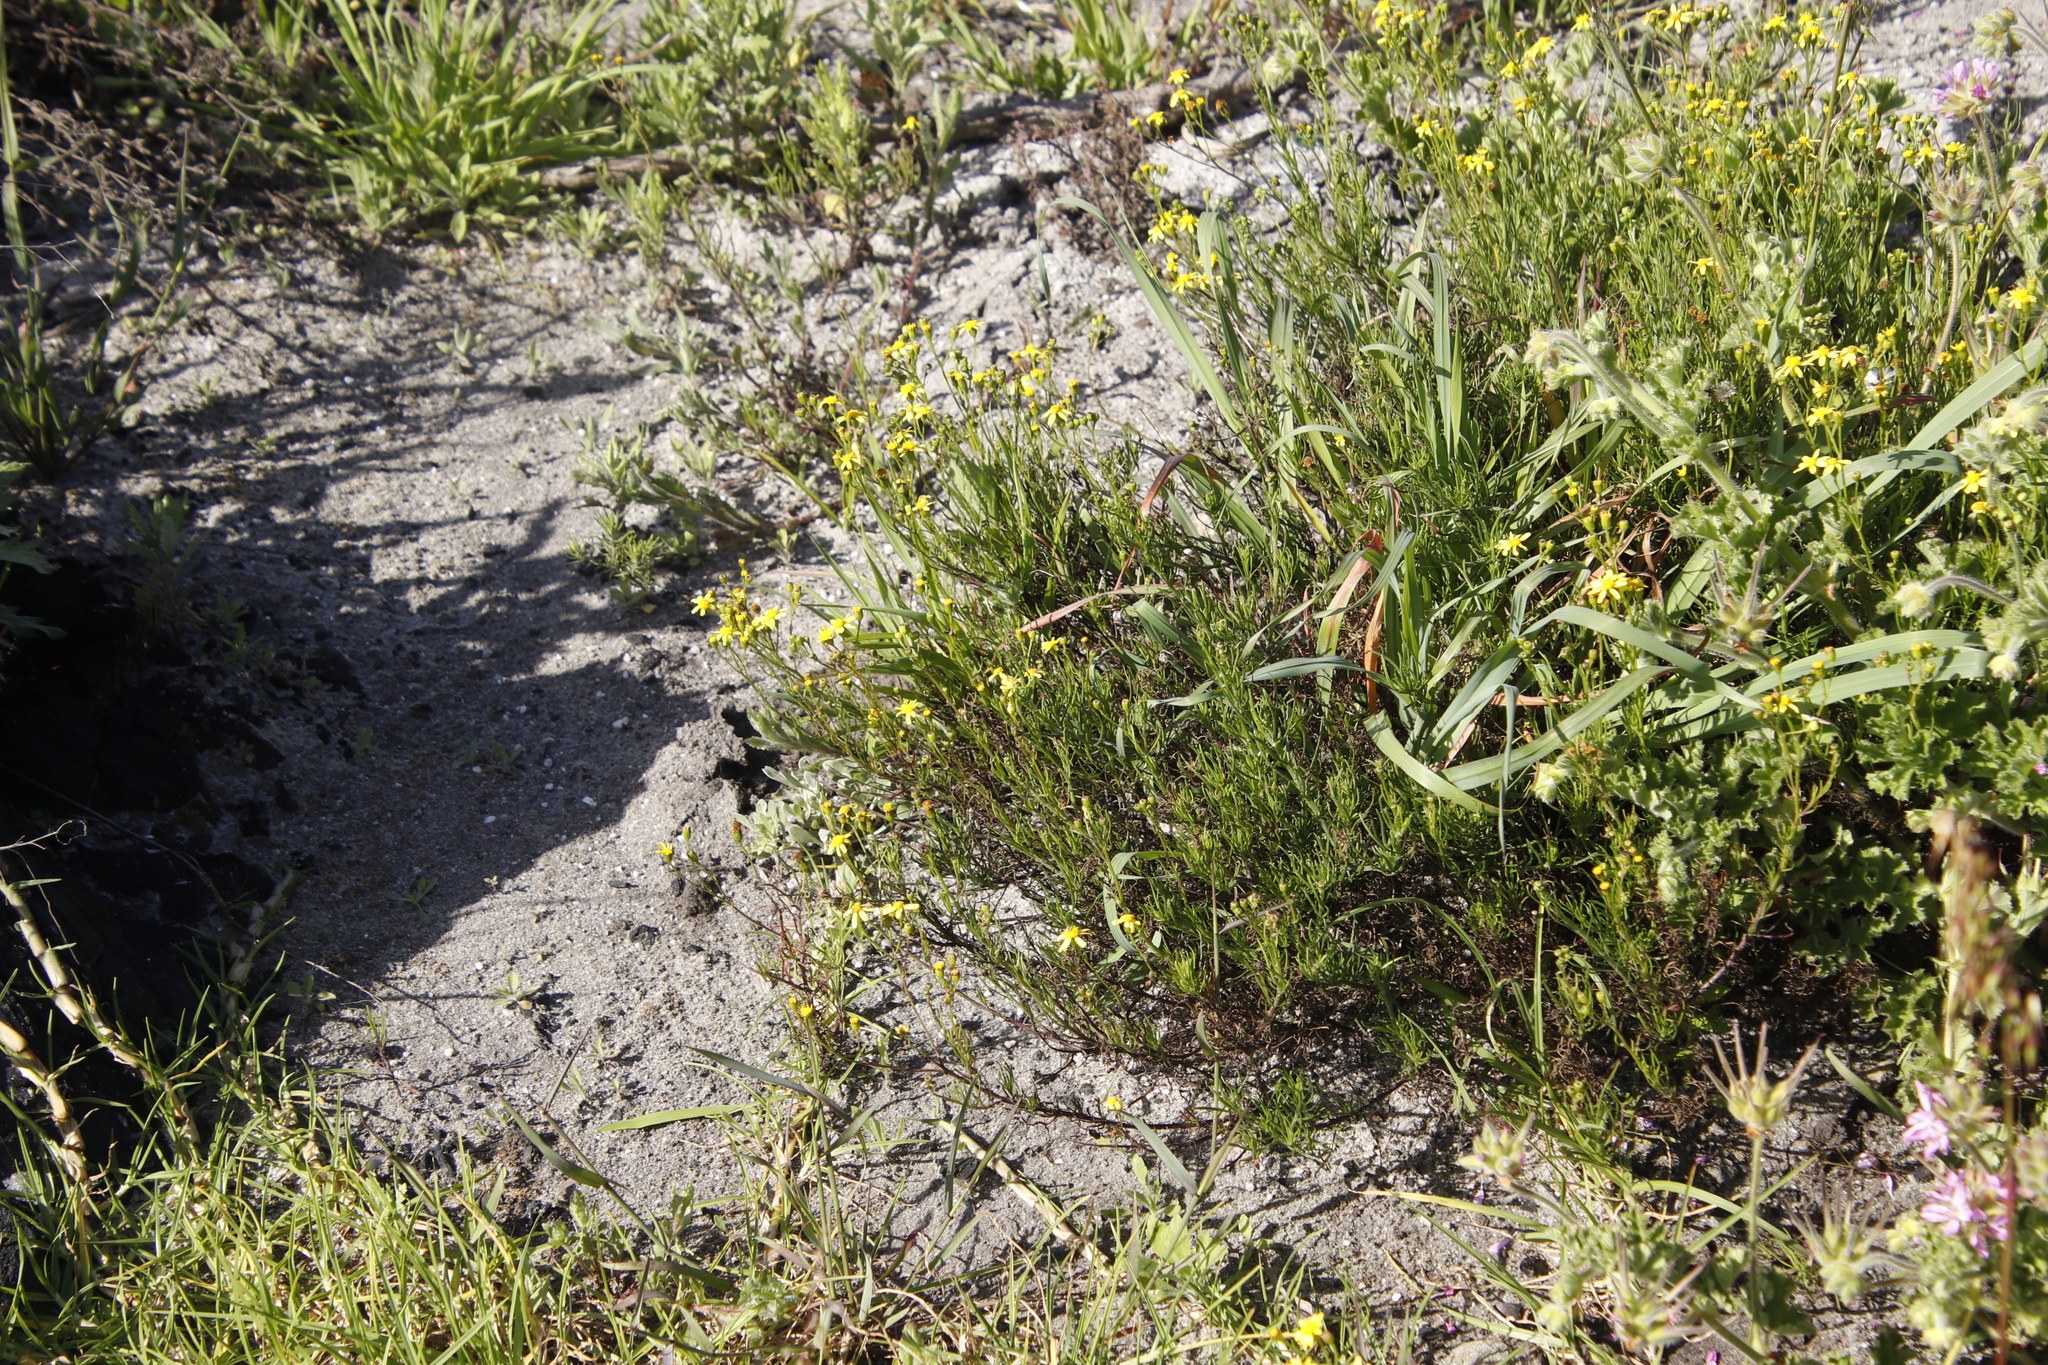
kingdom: Plantae
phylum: Tracheophyta
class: Magnoliopsida
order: Asterales
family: Asteraceae
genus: Senecio
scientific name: Senecio burchellii
